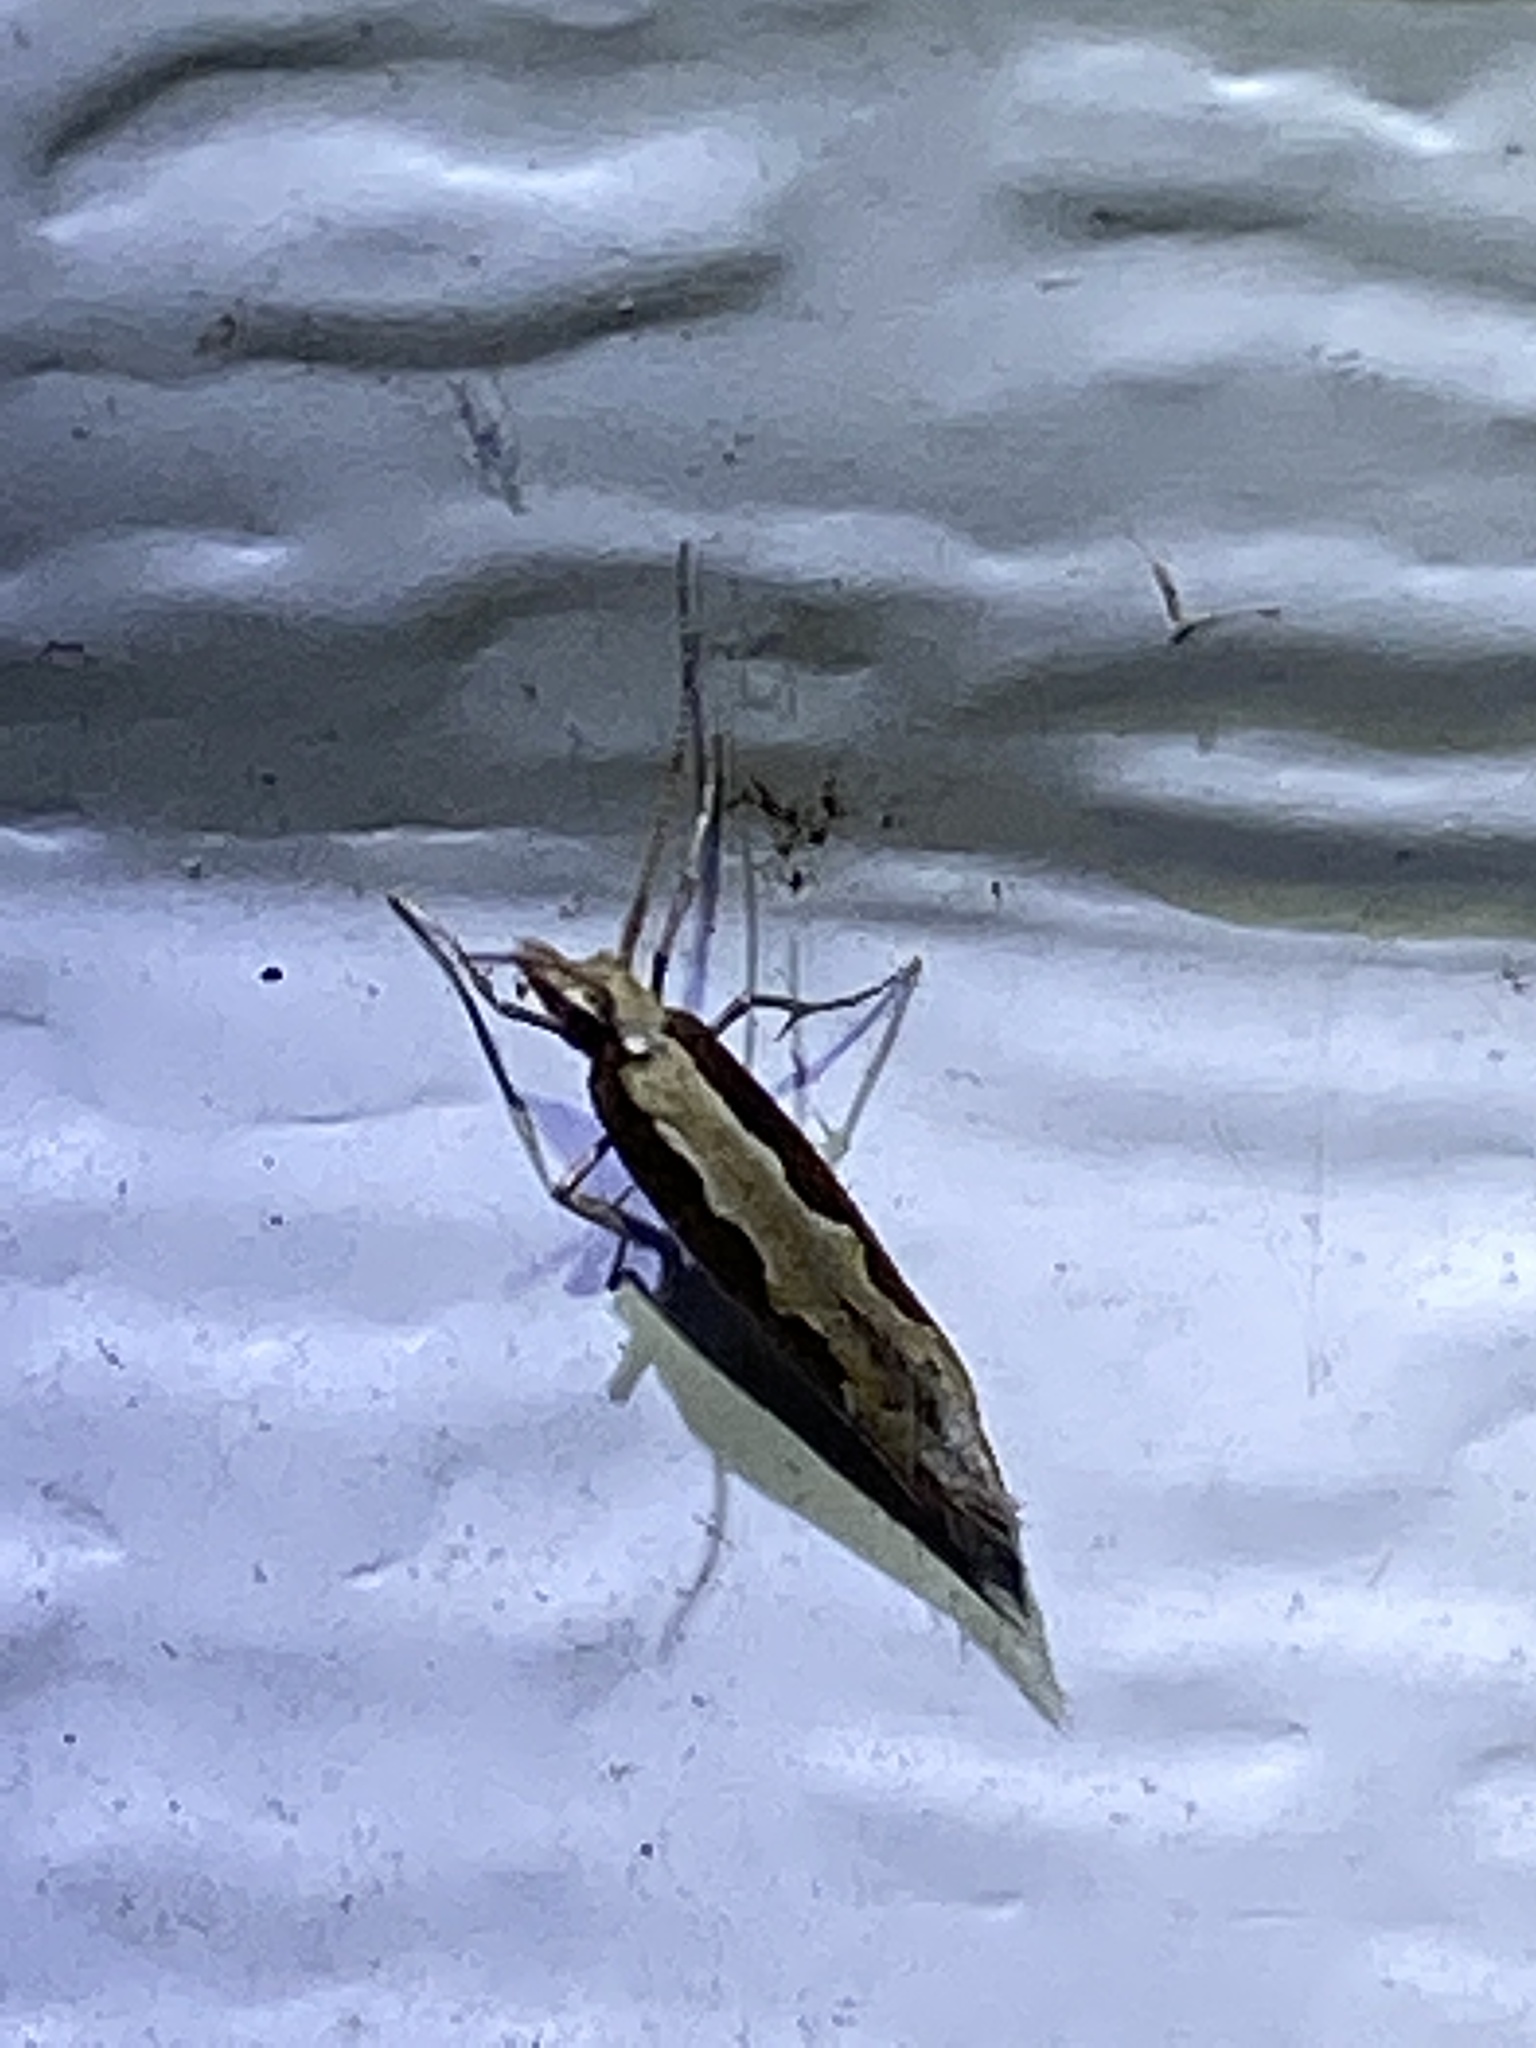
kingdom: Animalia
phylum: Arthropoda
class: Insecta
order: Lepidoptera
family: Plutellidae
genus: Plutella
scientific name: Plutella xylostella
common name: Diamond-back moth
